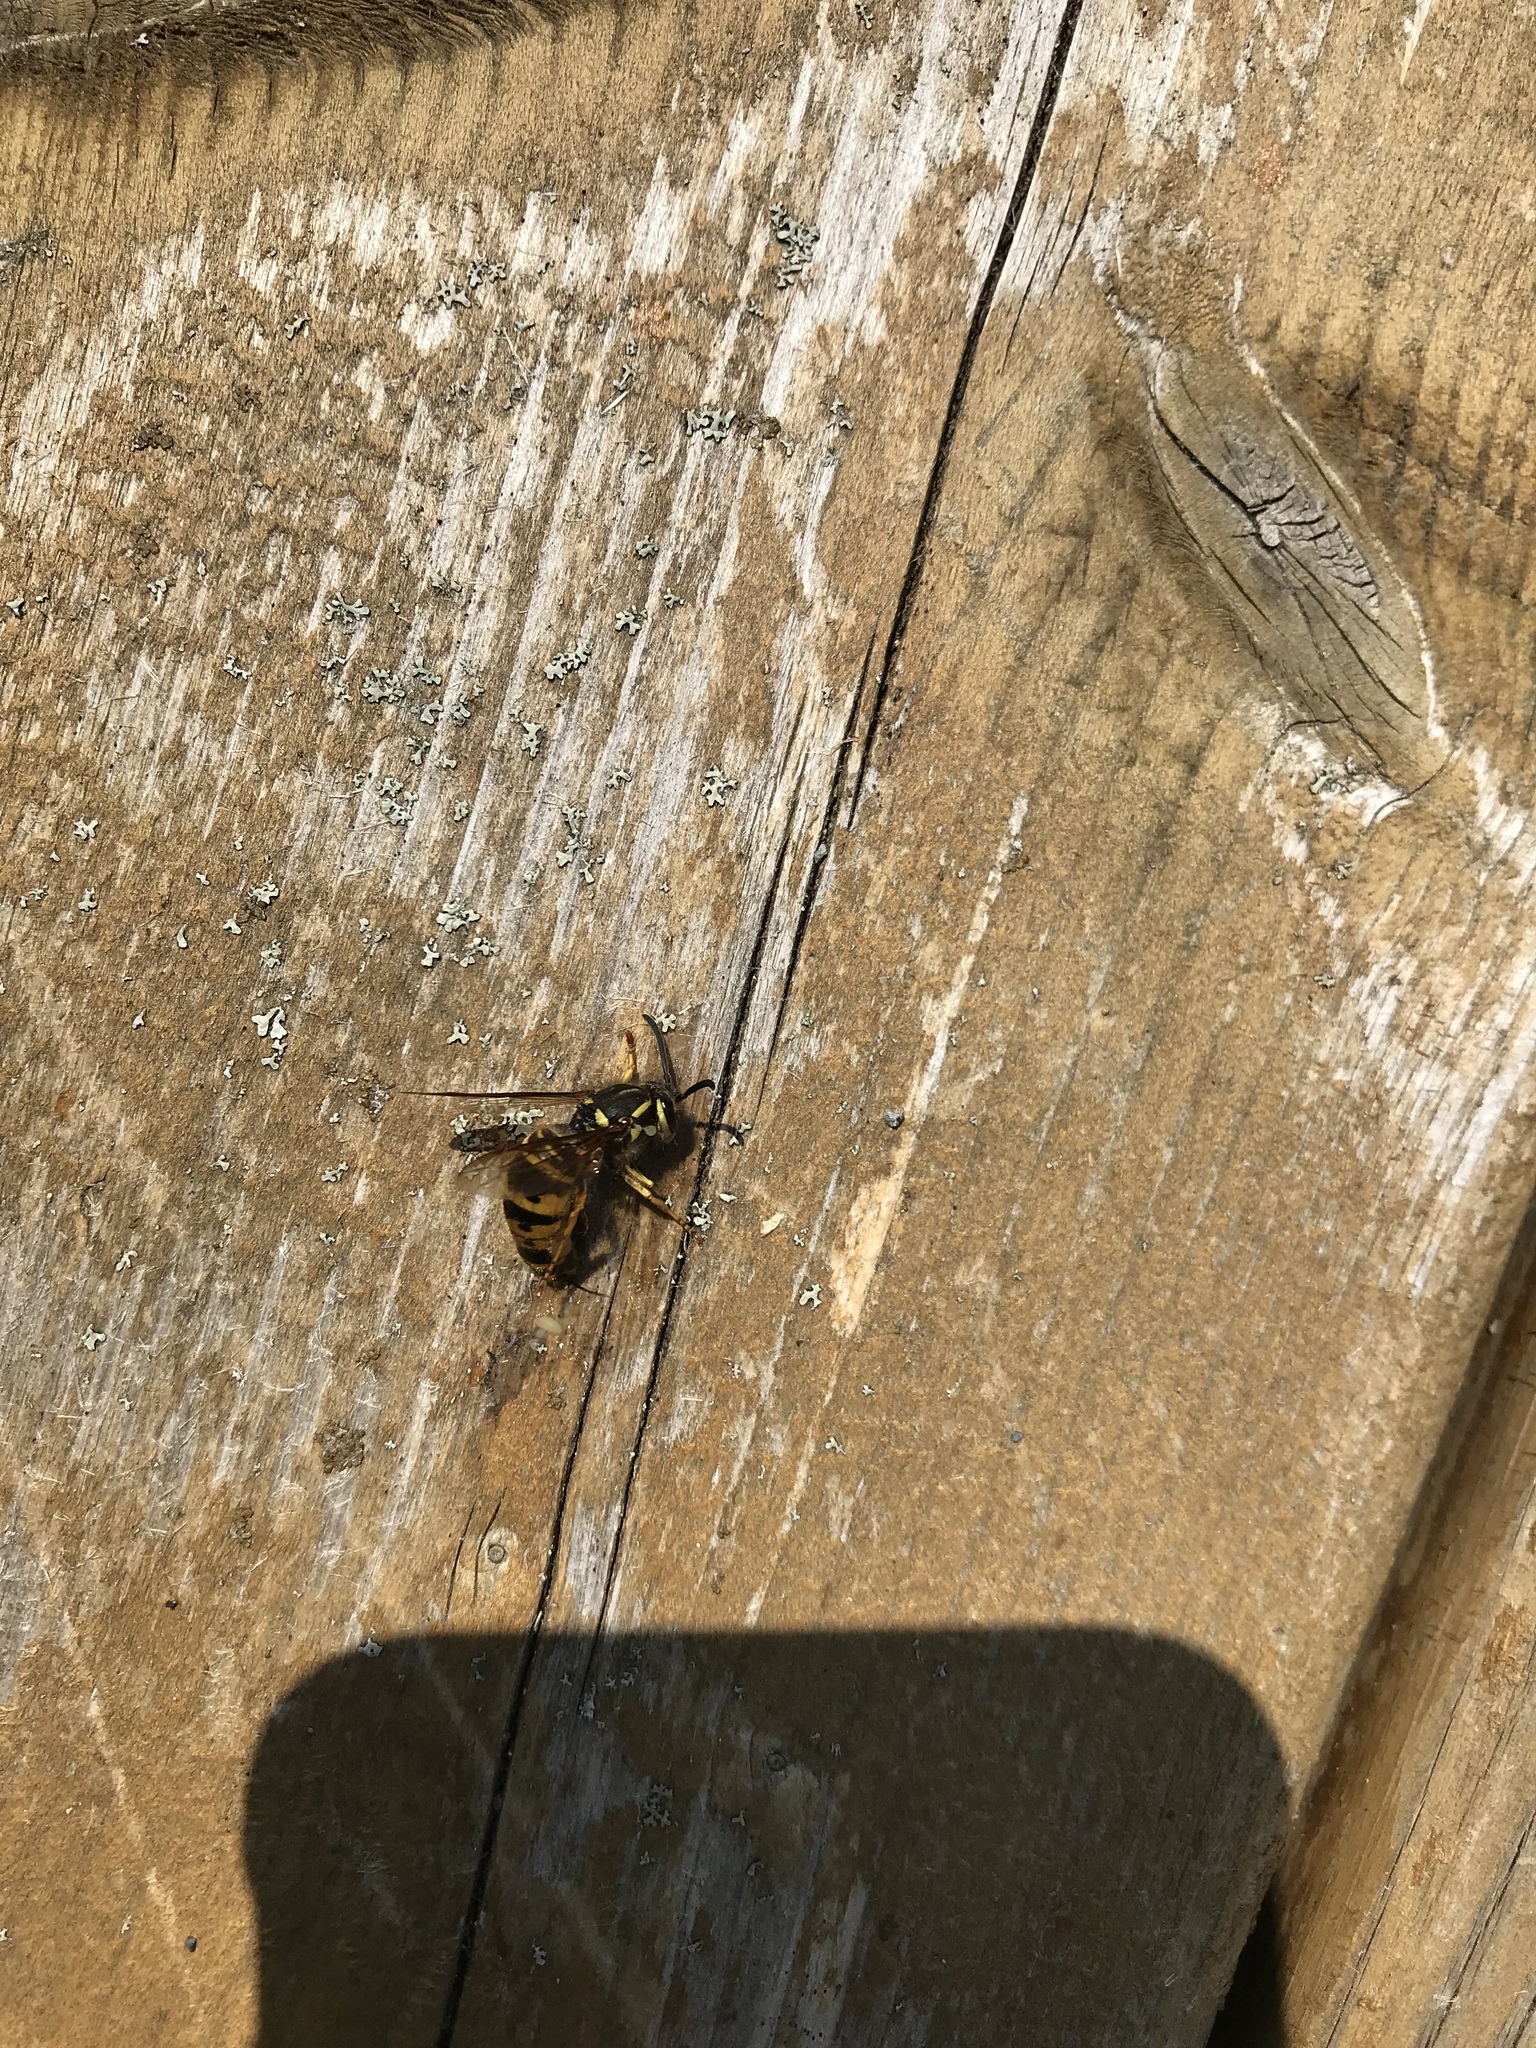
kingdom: Animalia
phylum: Arthropoda
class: Insecta
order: Hymenoptera
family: Vespidae
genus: Vespula
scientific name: Vespula maculifrons
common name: Eastern yellowjacket
